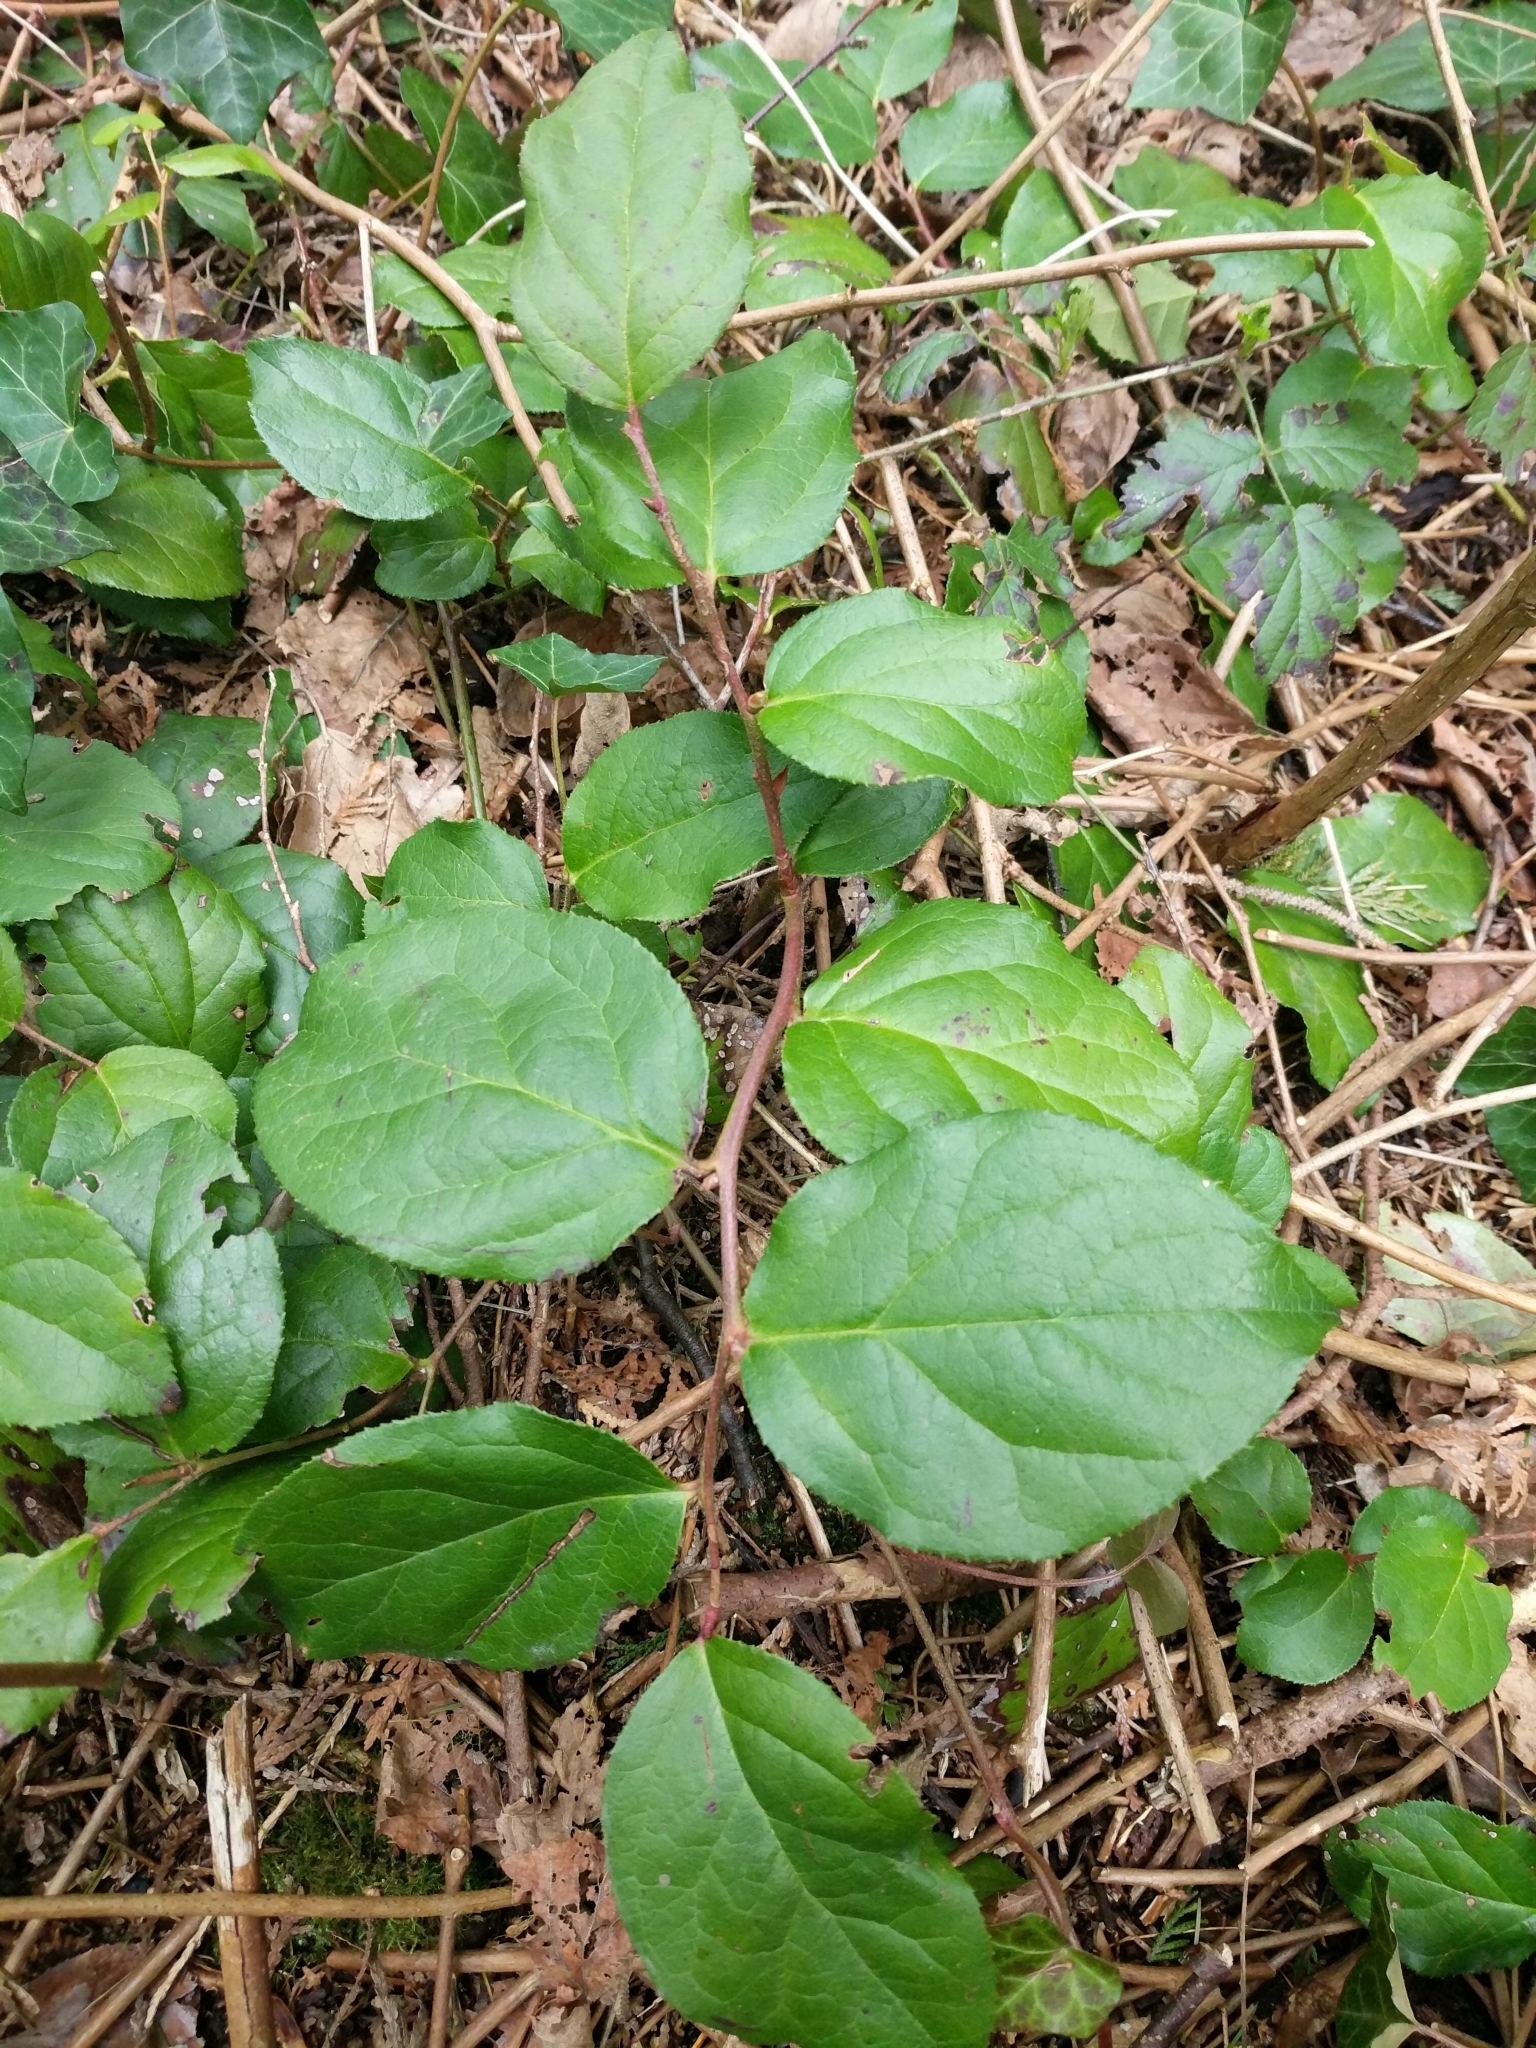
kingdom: Plantae
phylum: Tracheophyta
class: Magnoliopsida
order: Ericales
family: Ericaceae
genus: Gaultheria
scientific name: Gaultheria shallon
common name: Shallon
